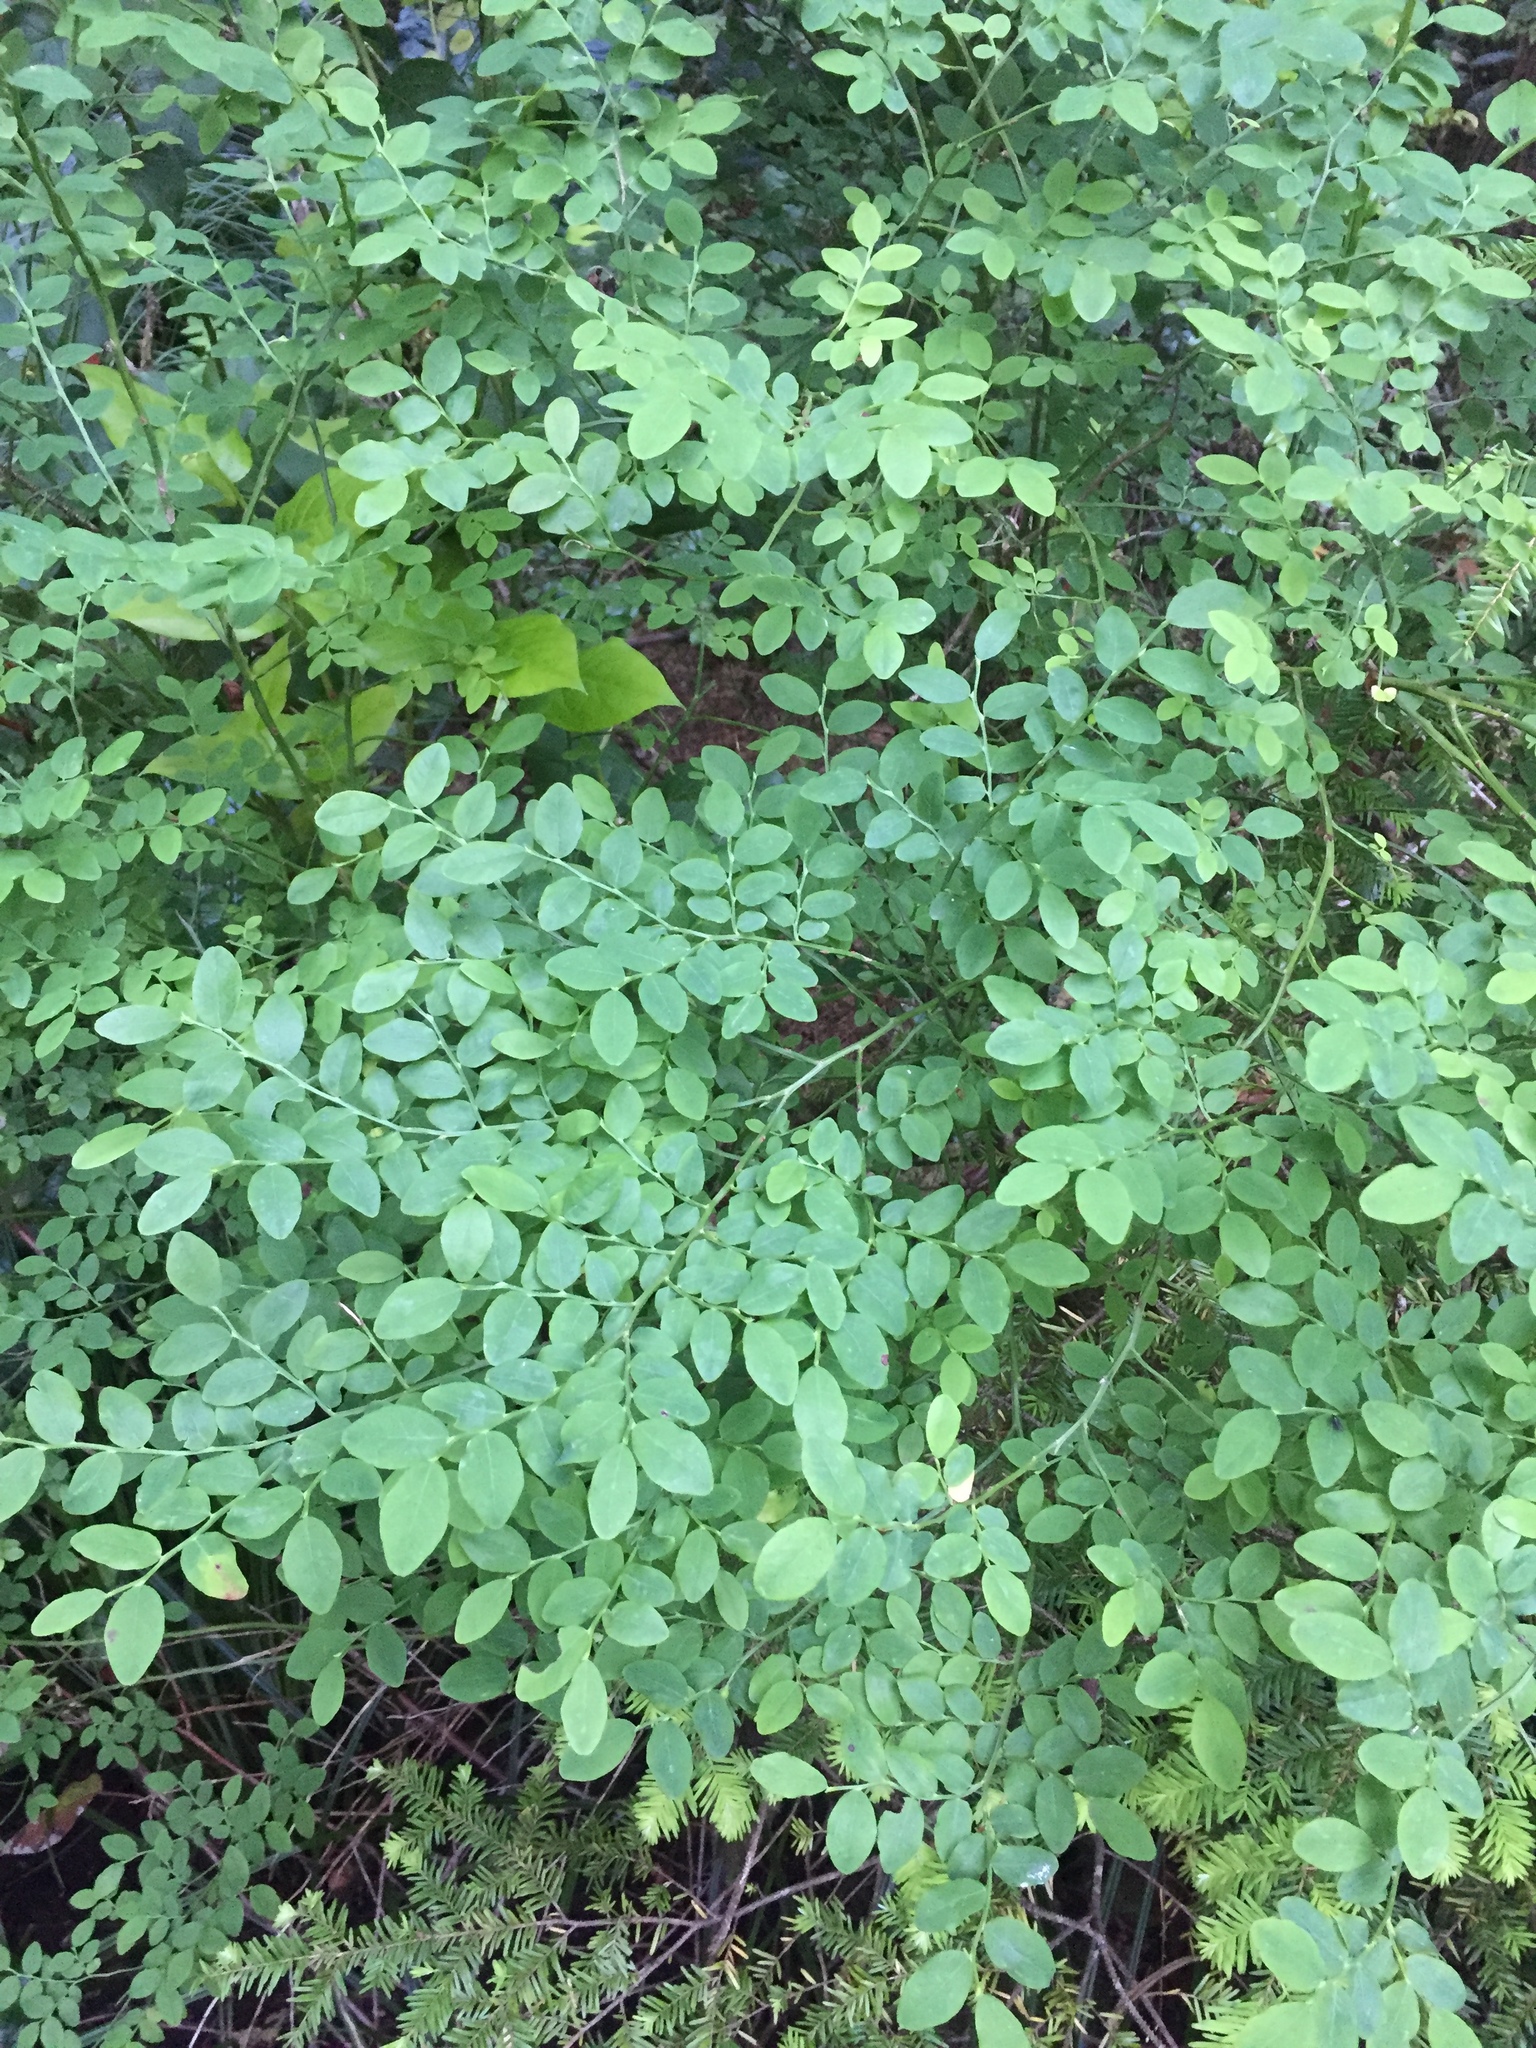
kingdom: Plantae
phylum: Tracheophyta
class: Magnoliopsida
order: Ericales
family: Ericaceae
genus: Vaccinium
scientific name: Vaccinium parvifolium
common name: Red-huckleberry
